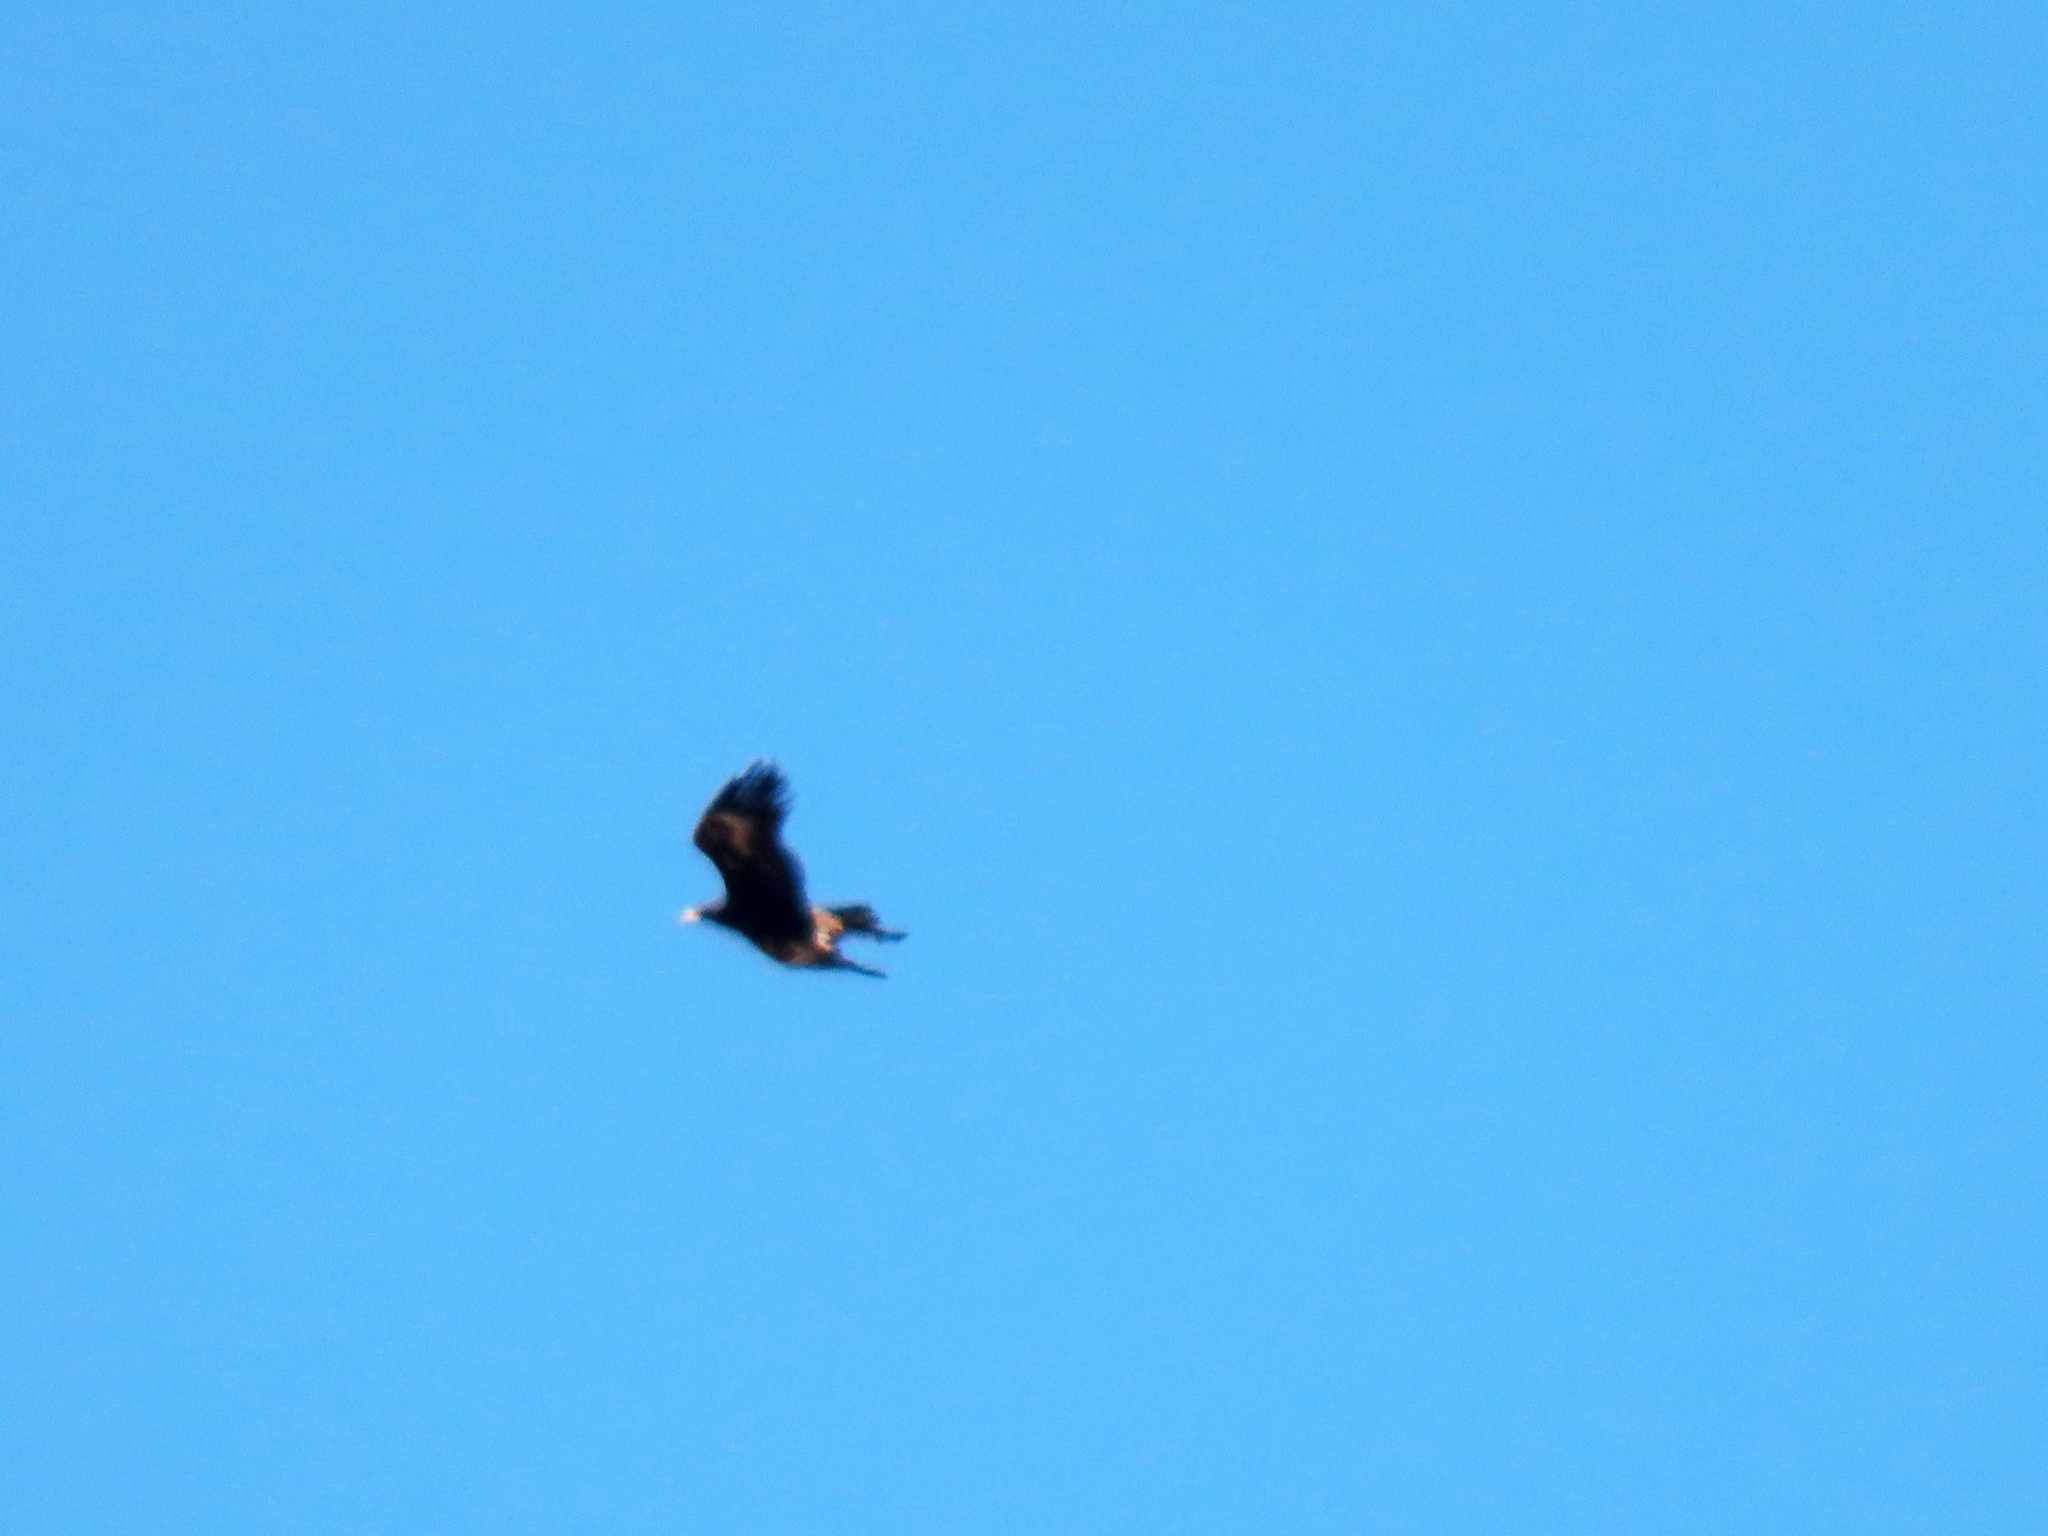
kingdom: Animalia
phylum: Chordata
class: Aves
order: Accipitriformes
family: Accipitridae
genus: Aquila
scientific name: Aquila audax
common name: Wedge-tailed eagle
